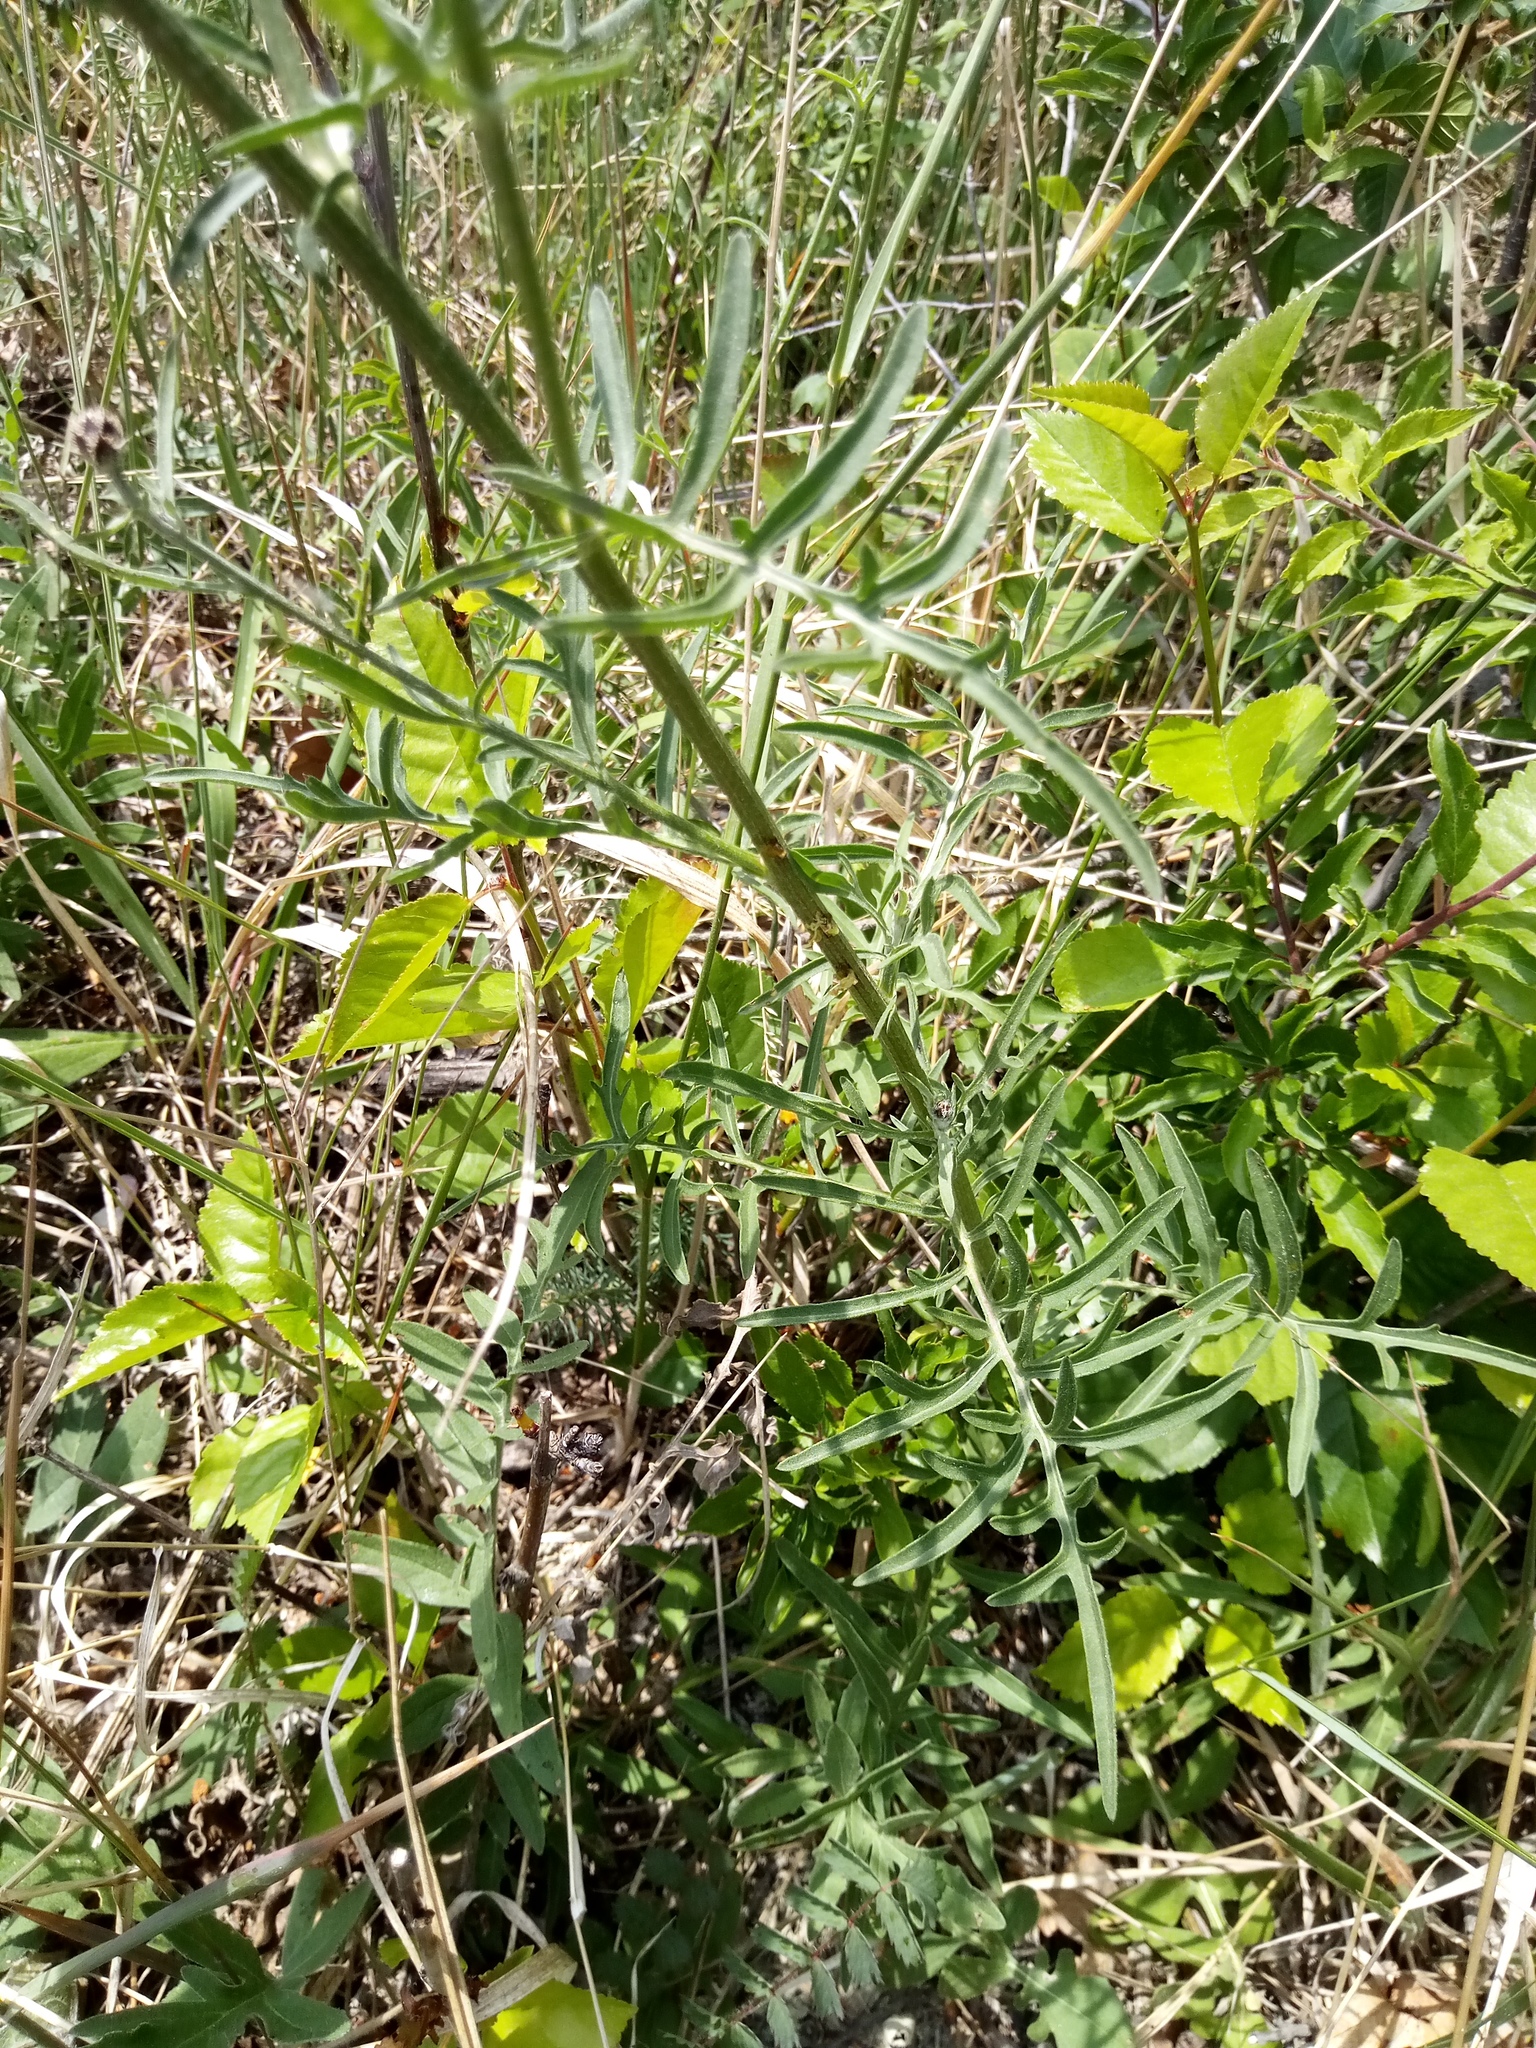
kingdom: Plantae
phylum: Tracheophyta
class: Magnoliopsida
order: Asterales
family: Asteraceae
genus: Centaurea
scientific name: Centaurea scabiosa
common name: Greater knapweed
